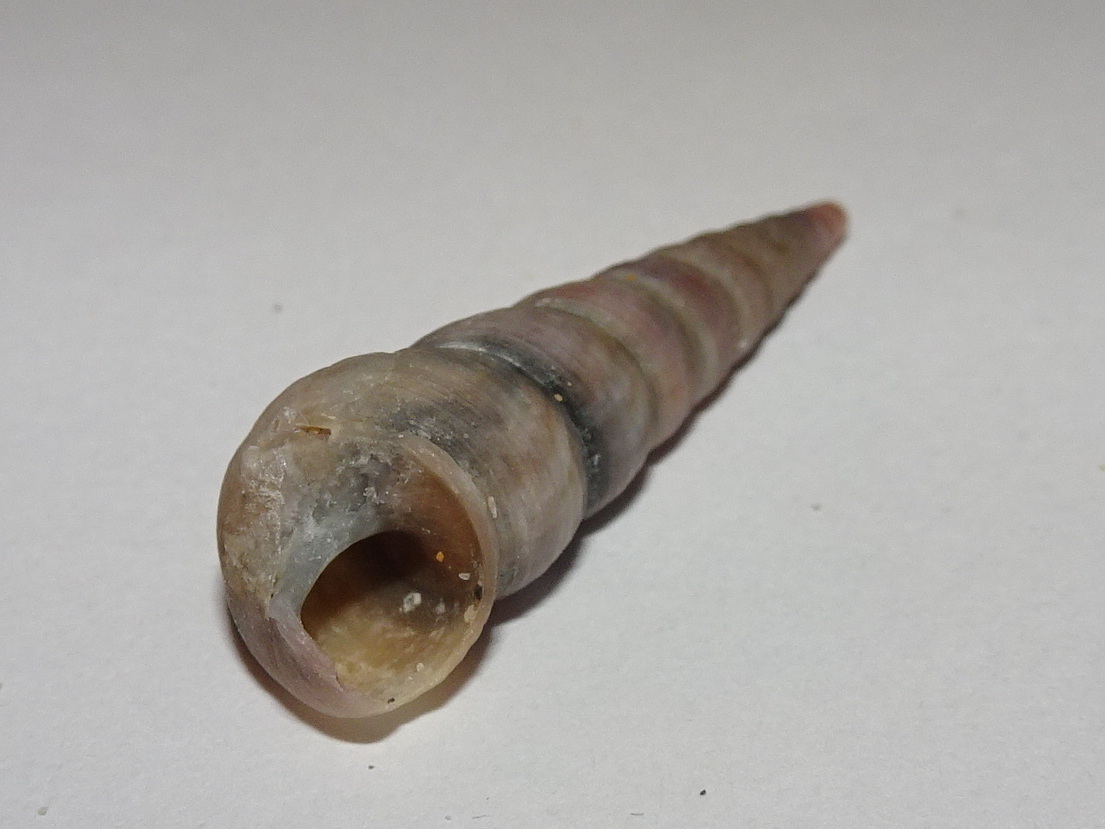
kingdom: Animalia
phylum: Mollusca
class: Gastropoda
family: Turritellidae
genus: Turritellinella
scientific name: Turritellinella tricarinata
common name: Auger shell
